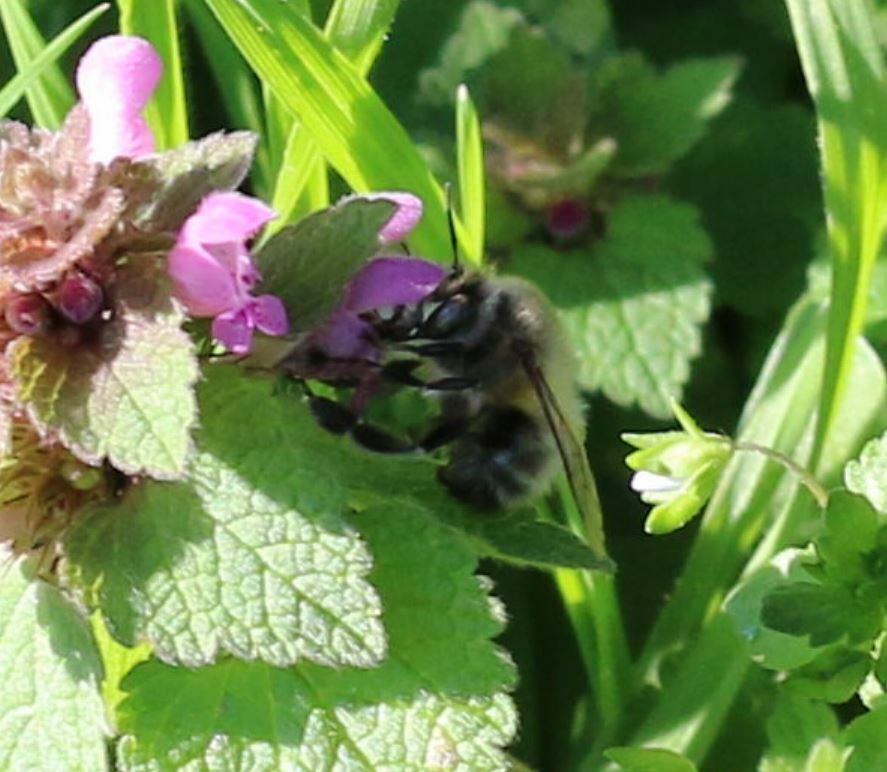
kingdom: Animalia
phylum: Arthropoda
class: Insecta
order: Hymenoptera
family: Apidae
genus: Anthophora
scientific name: Anthophora plumipes
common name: Hairy-footed flower bee
